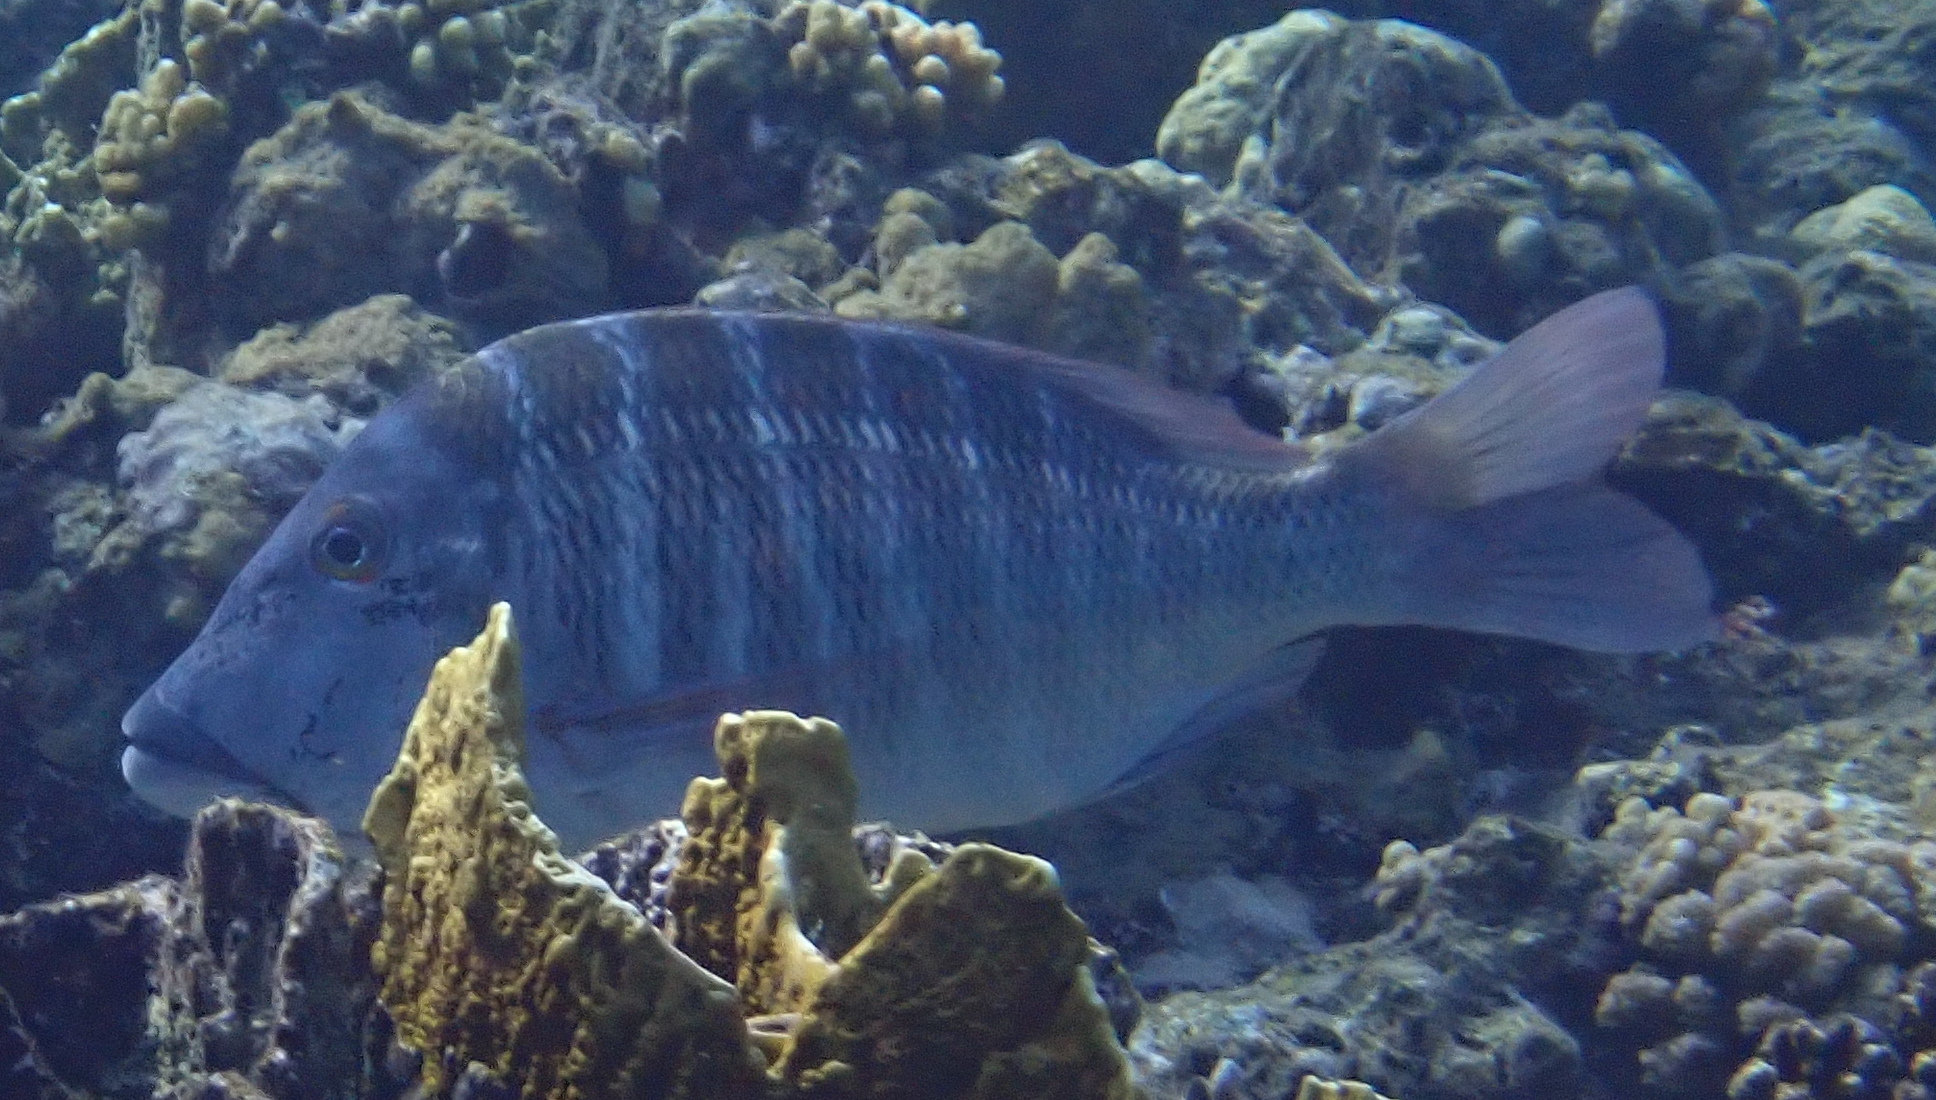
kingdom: Animalia
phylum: Chordata
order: Perciformes
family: Lethrinidae
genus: Lethrinus
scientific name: Lethrinus mahsena
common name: Sky emperor
